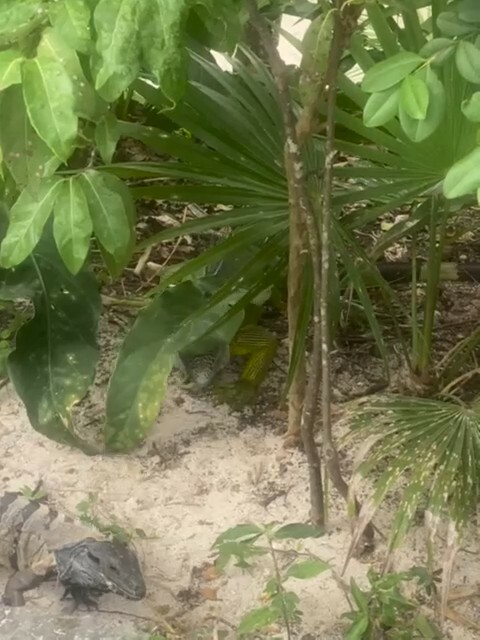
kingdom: Animalia
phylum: Chordata
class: Squamata
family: Iguanidae
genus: Ctenosaura
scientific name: Ctenosaura similis
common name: Black spiny-tailed iguana
